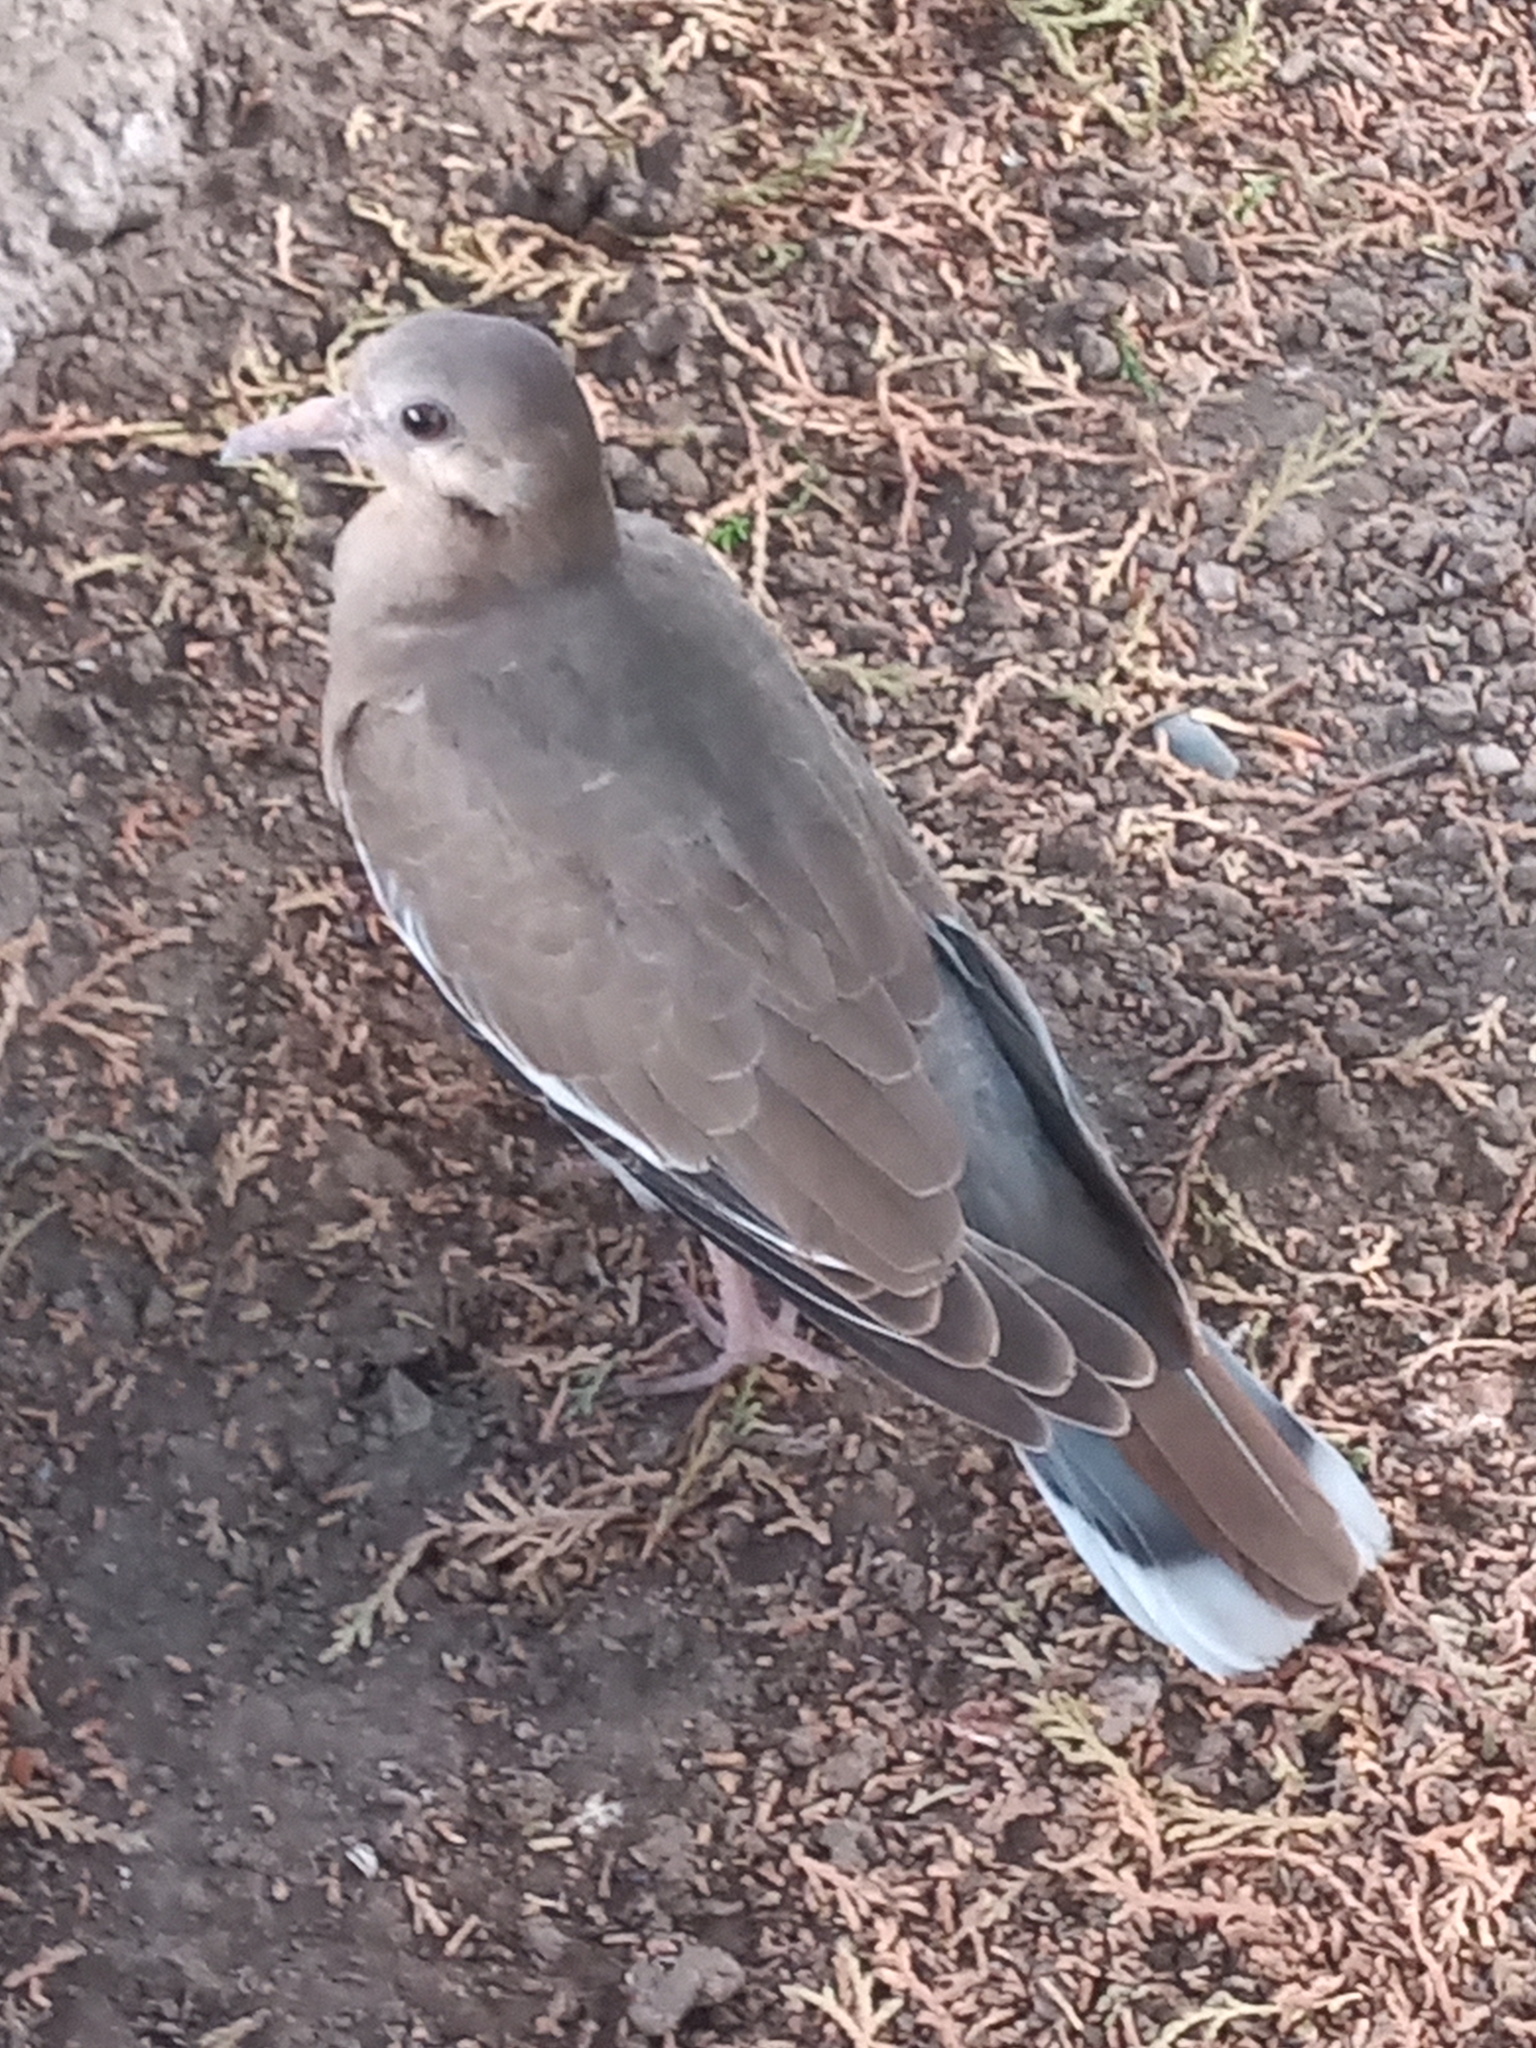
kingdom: Animalia
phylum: Chordata
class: Aves
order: Columbiformes
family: Columbidae
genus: Zenaida
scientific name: Zenaida asiatica
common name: White-winged dove
